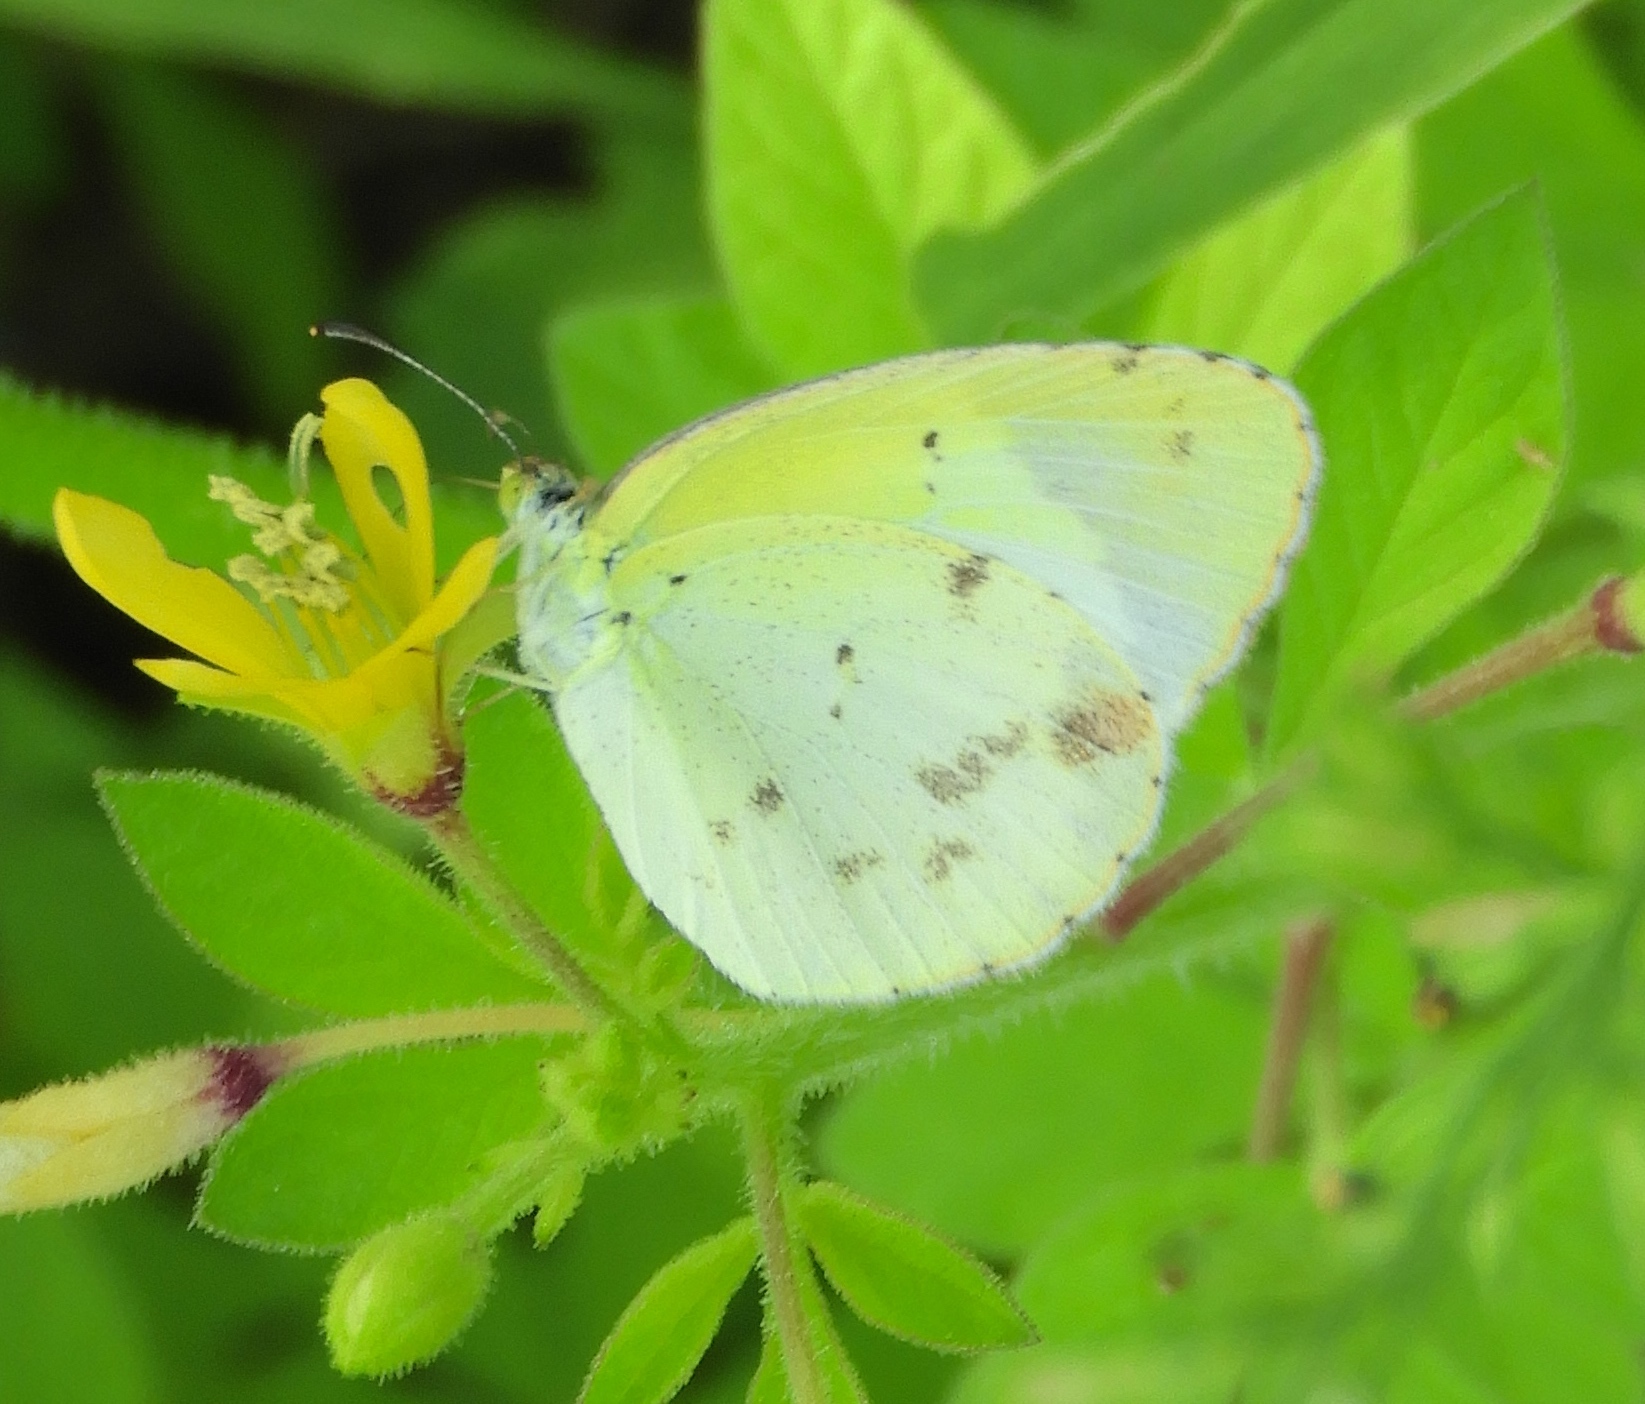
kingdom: Animalia
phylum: Arthropoda
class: Insecta
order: Lepidoptera
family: Pieridae
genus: Pyrisitia
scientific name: Pyrisitia lisa
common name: Little yellow
